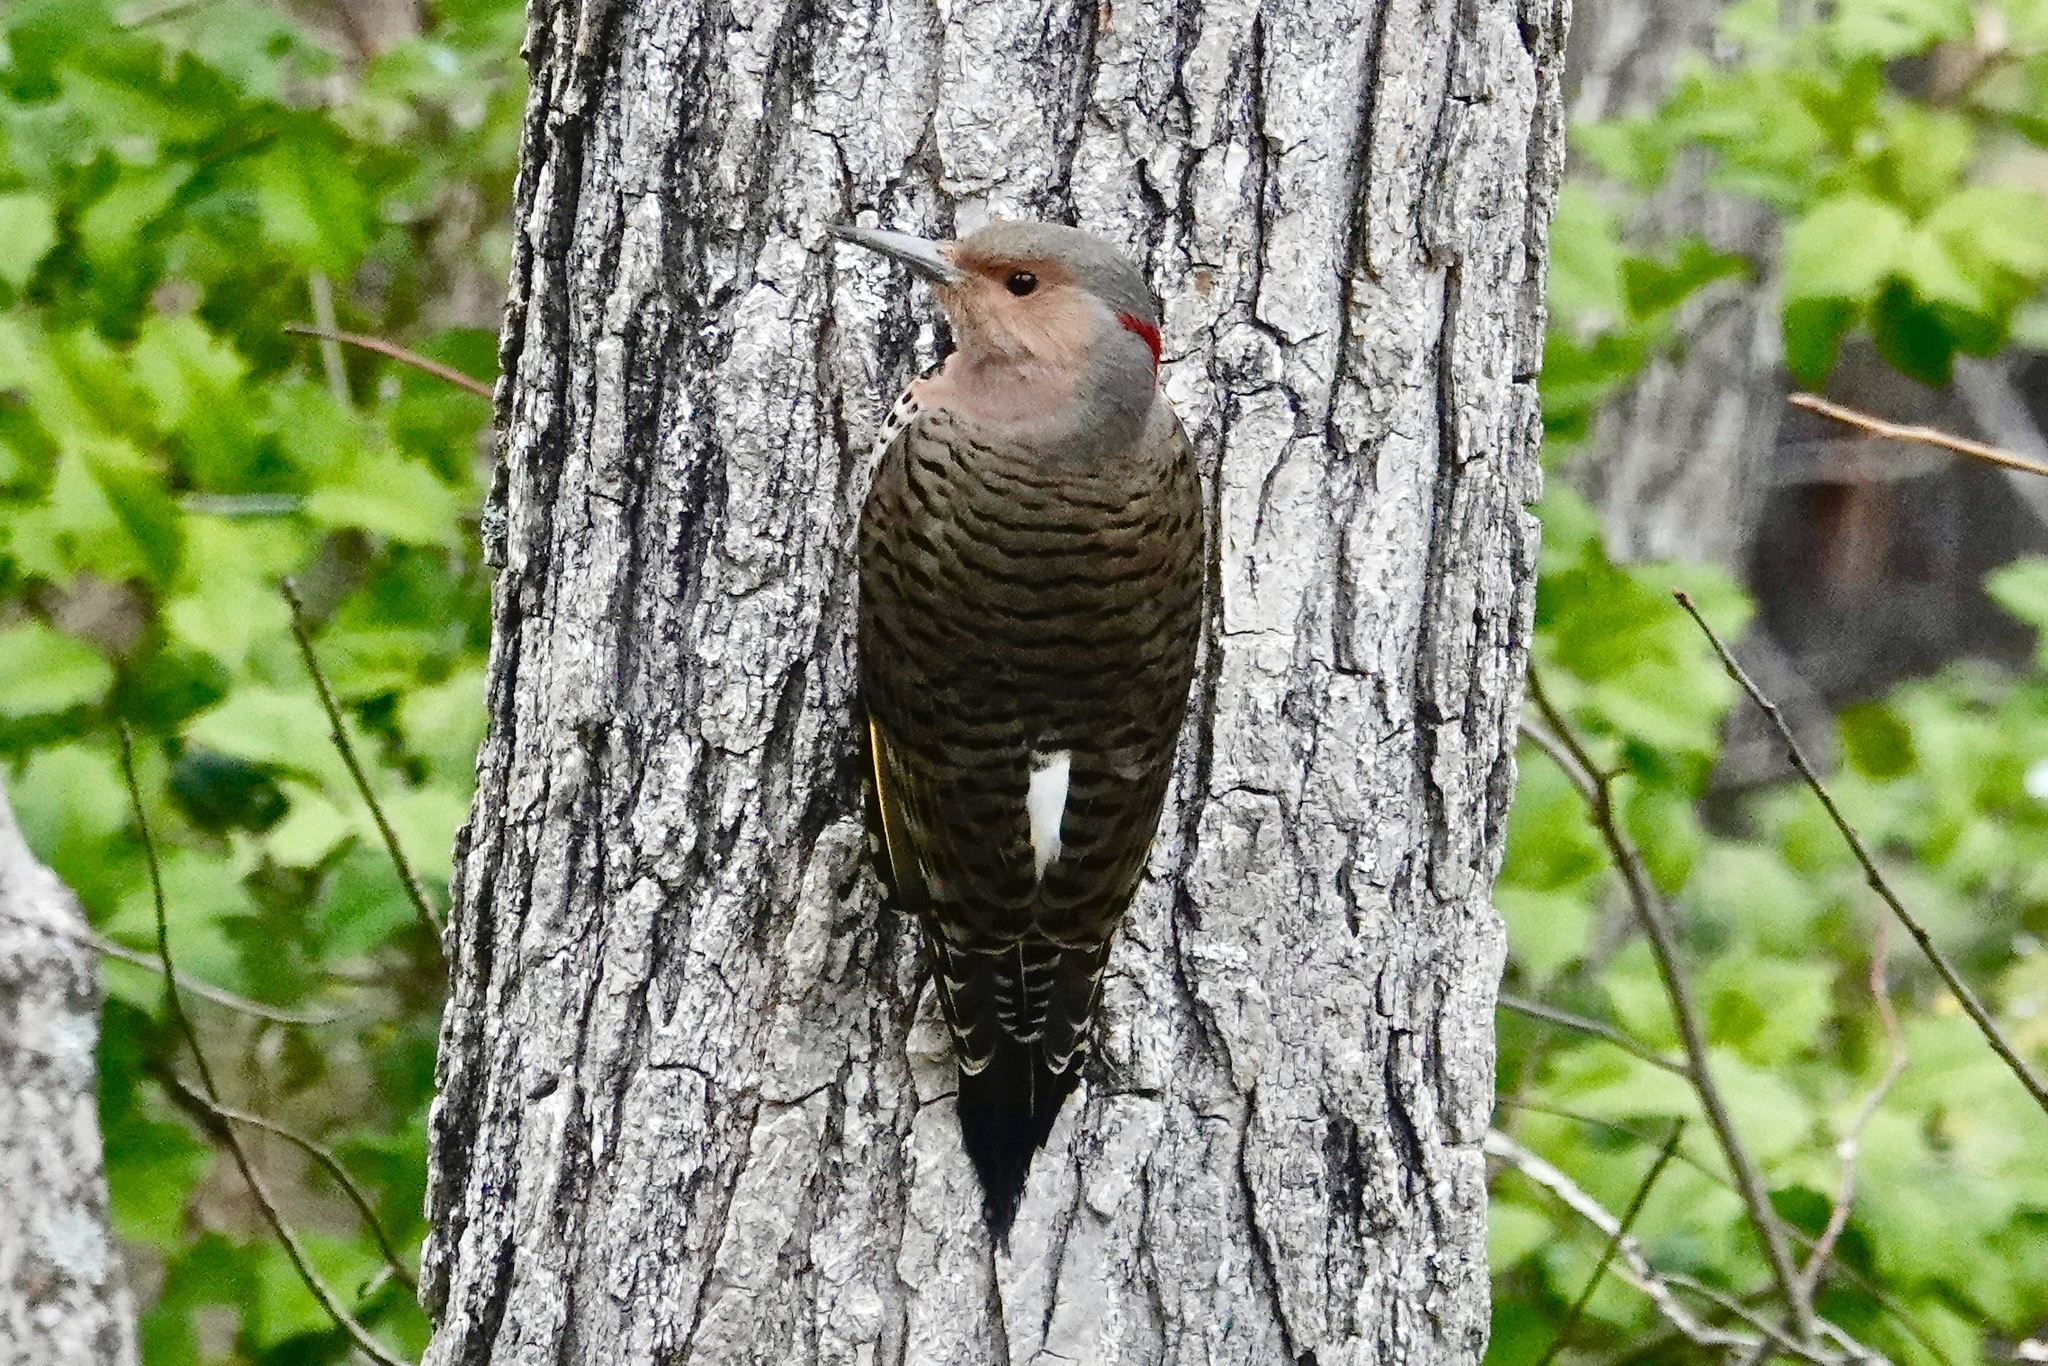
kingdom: Animalia
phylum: Chordata
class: Aves
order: Piciformes
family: Picidae
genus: Colaptes
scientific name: Colaptes auratus
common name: Northern flicker
